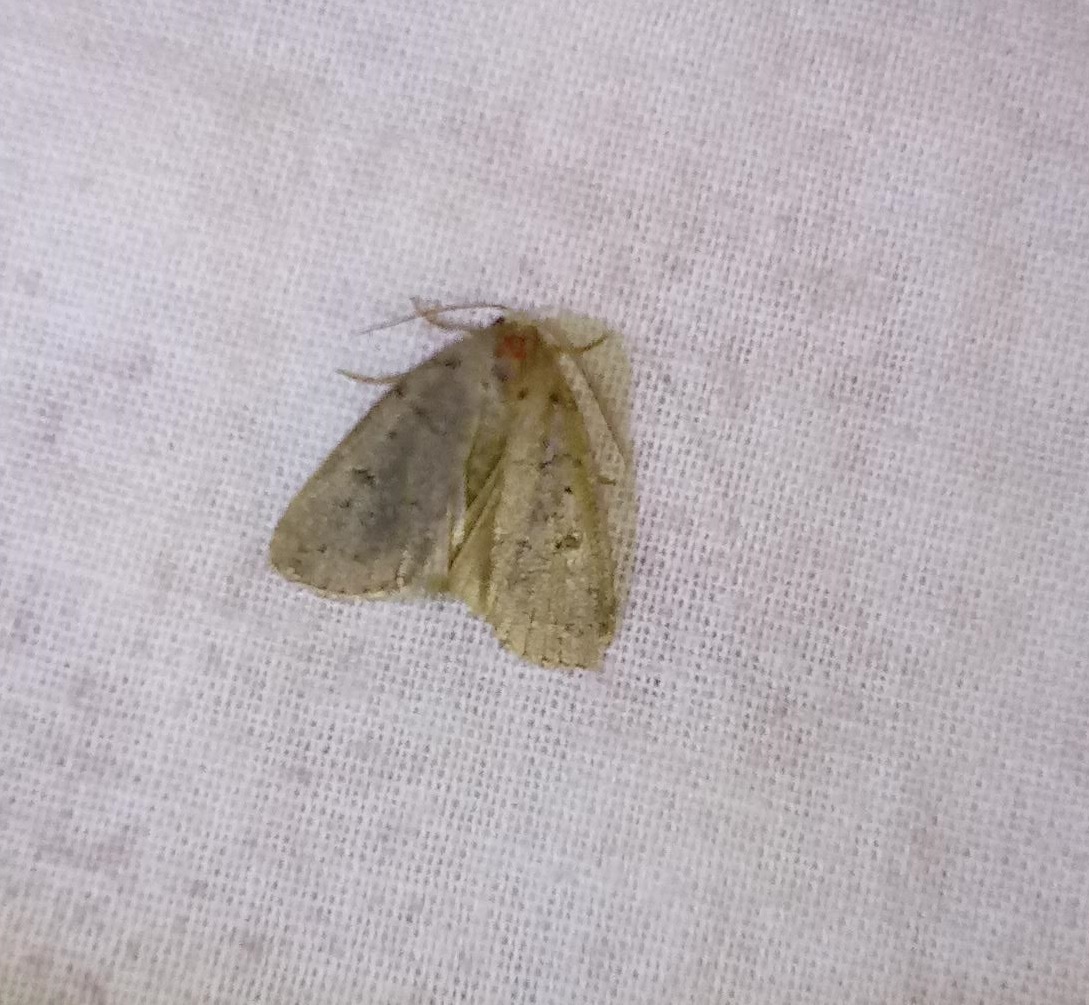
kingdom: Animalia
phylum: Arthropoda
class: Insecta
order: Lepidoptera
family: Noctuidae
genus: Athetis
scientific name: Athetis tarda
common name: Slowpoke moth
